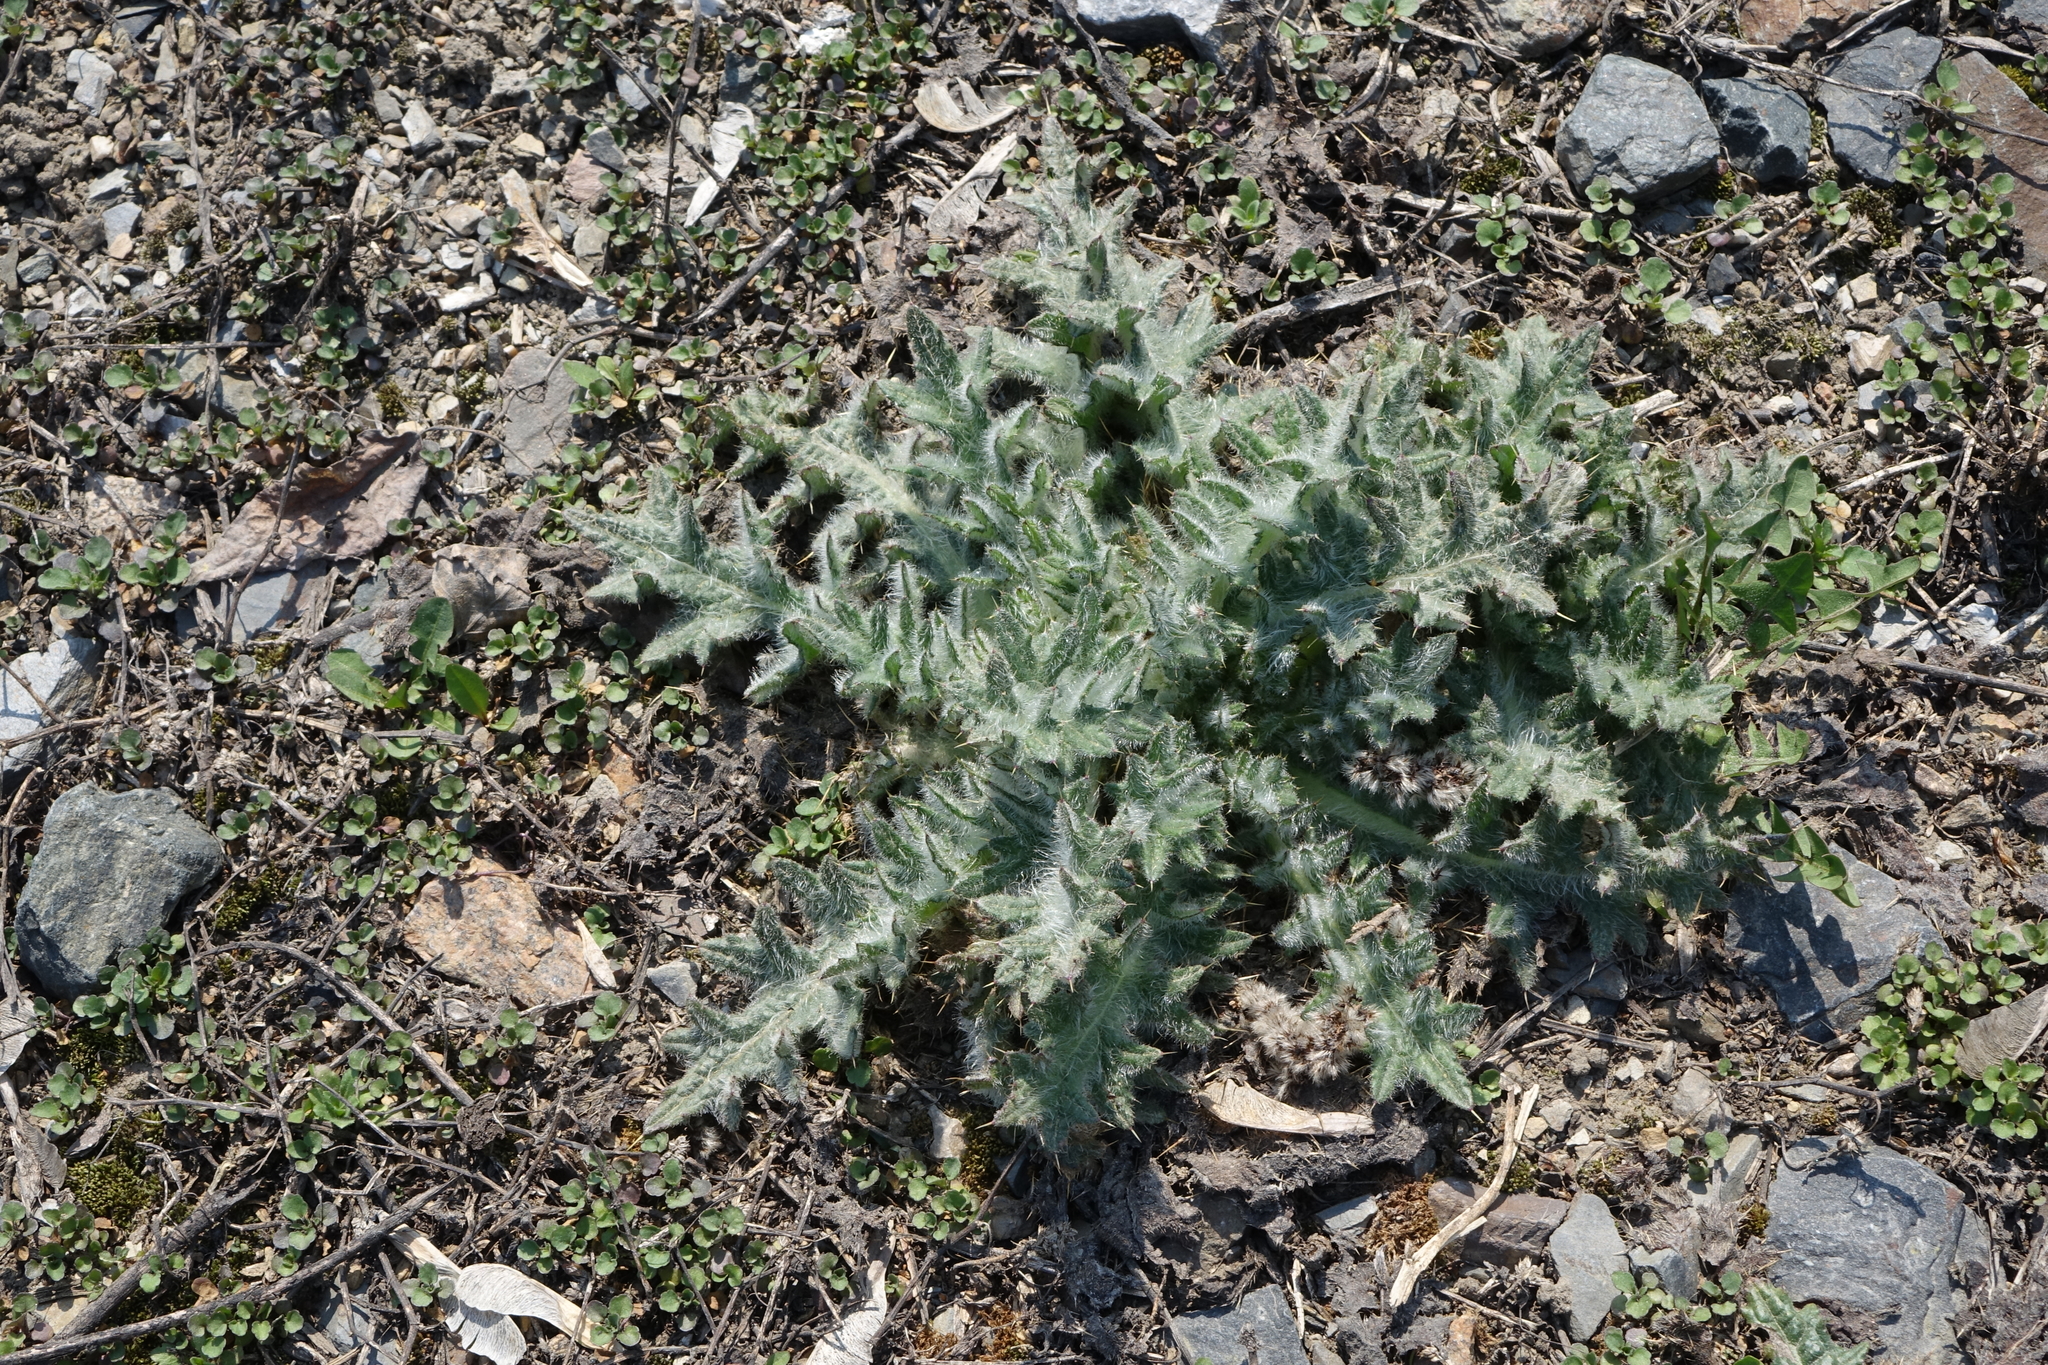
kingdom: Plantae
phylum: Tracheophyta
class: Magnoliopsida
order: Asterales
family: Asteraceae
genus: Cirsium
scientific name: Cirsium vulgare
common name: Bull thistle
